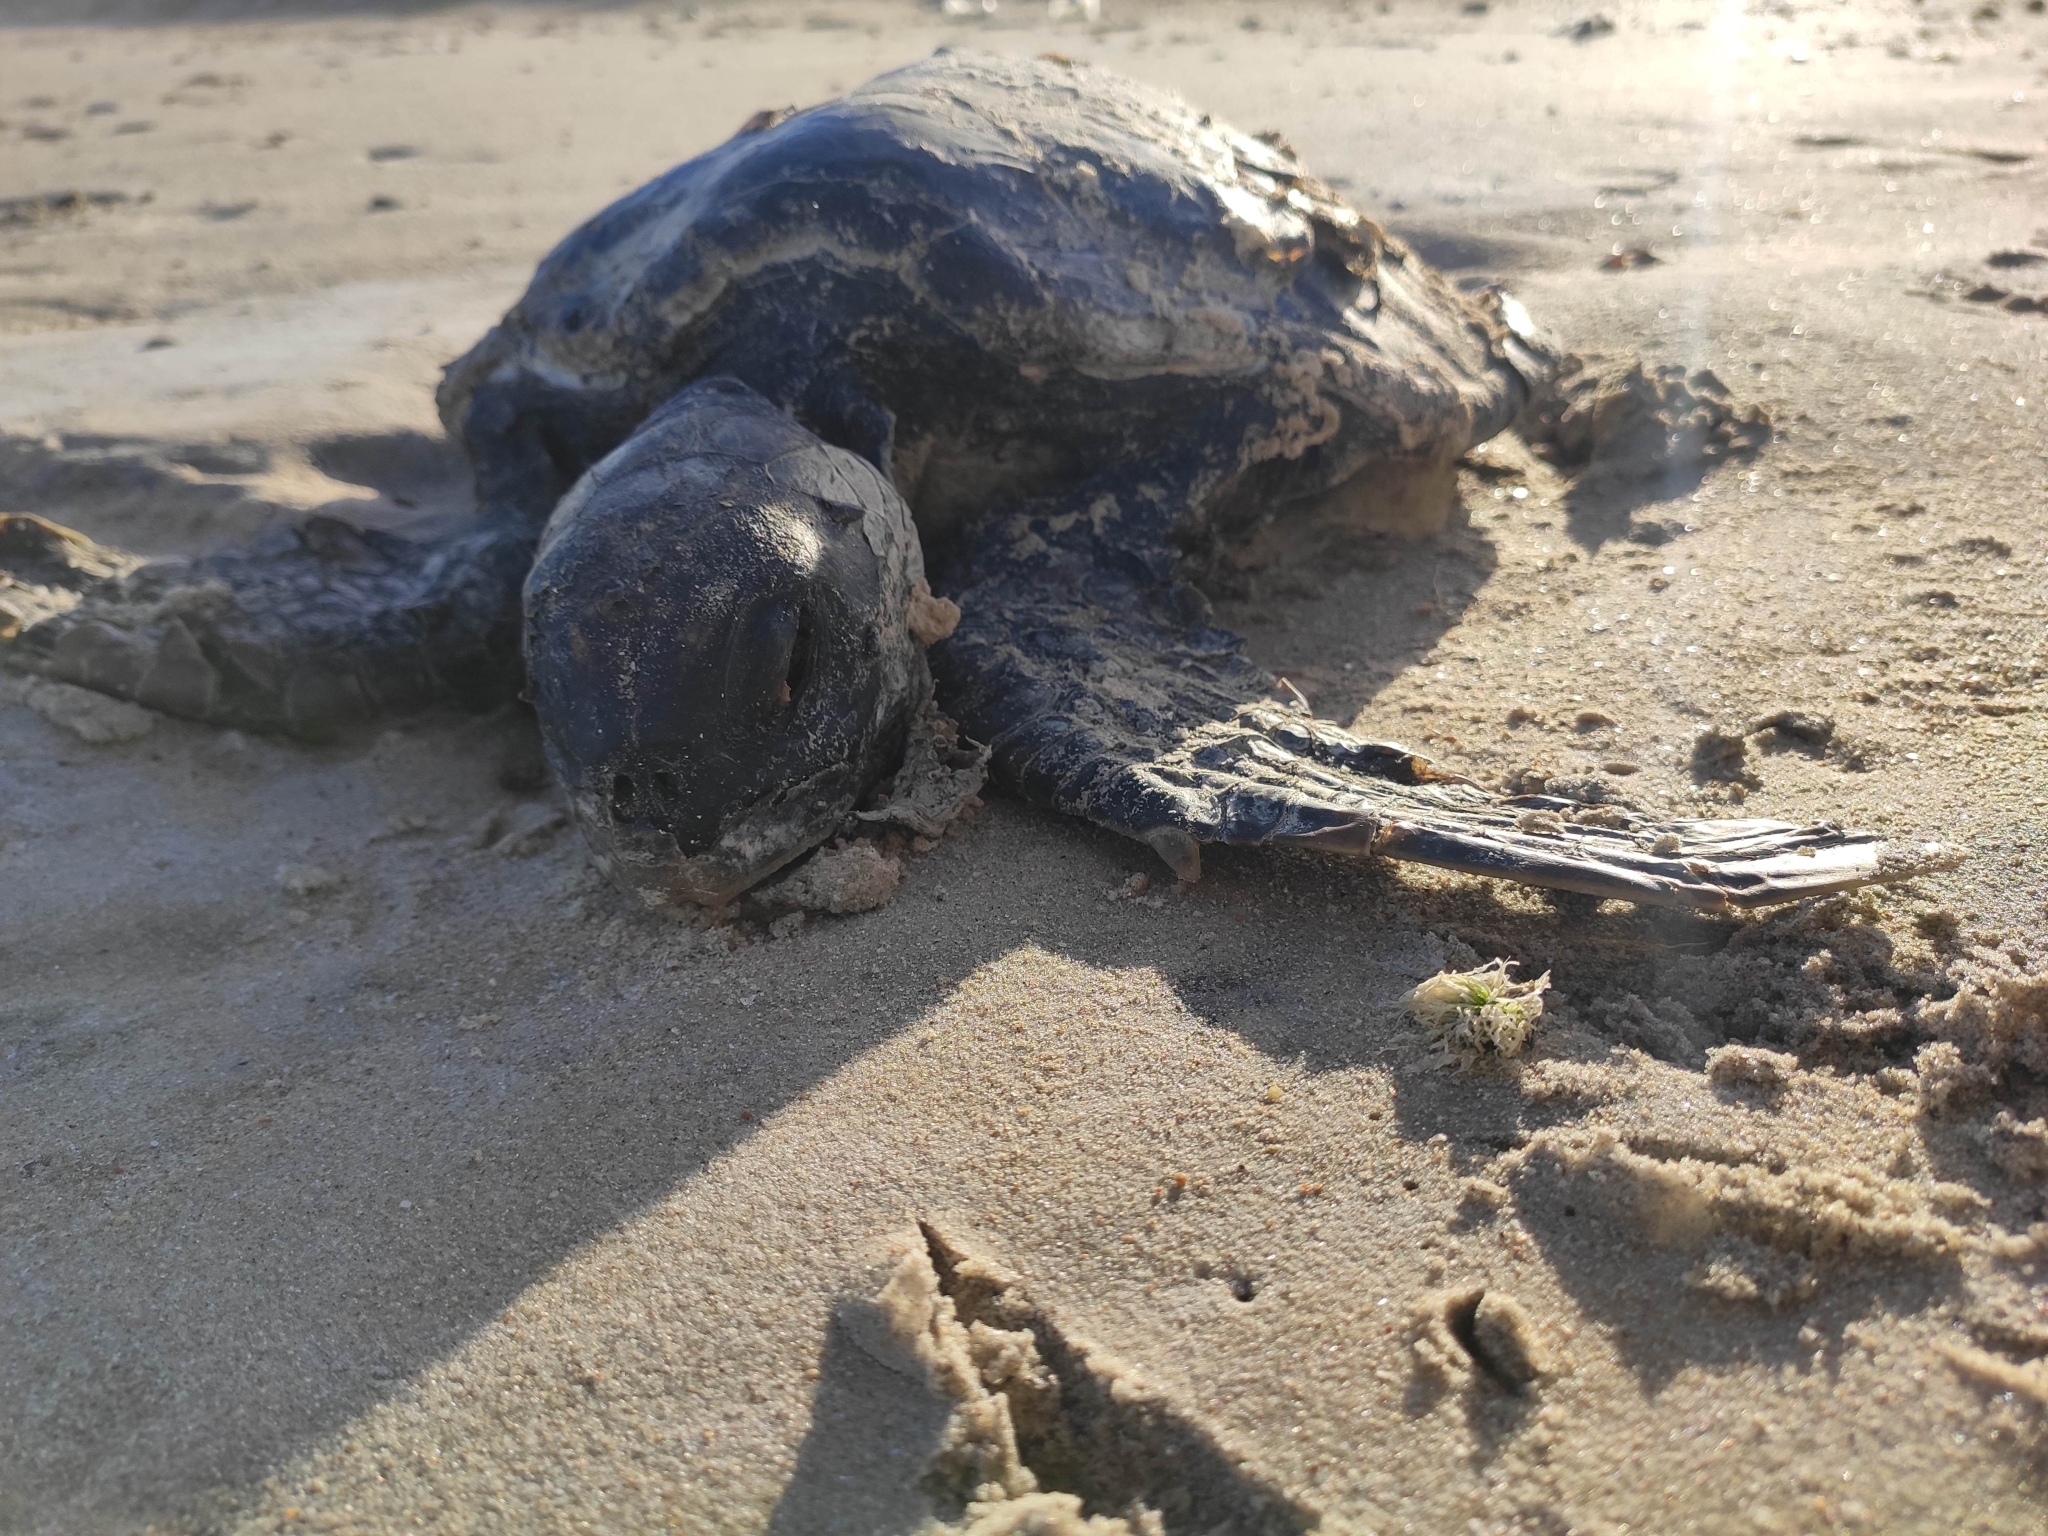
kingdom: Animalia
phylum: Chordata
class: Testudines
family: Cheloniidae
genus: Chelonia
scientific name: Chelonia mydas
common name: Green turtle
